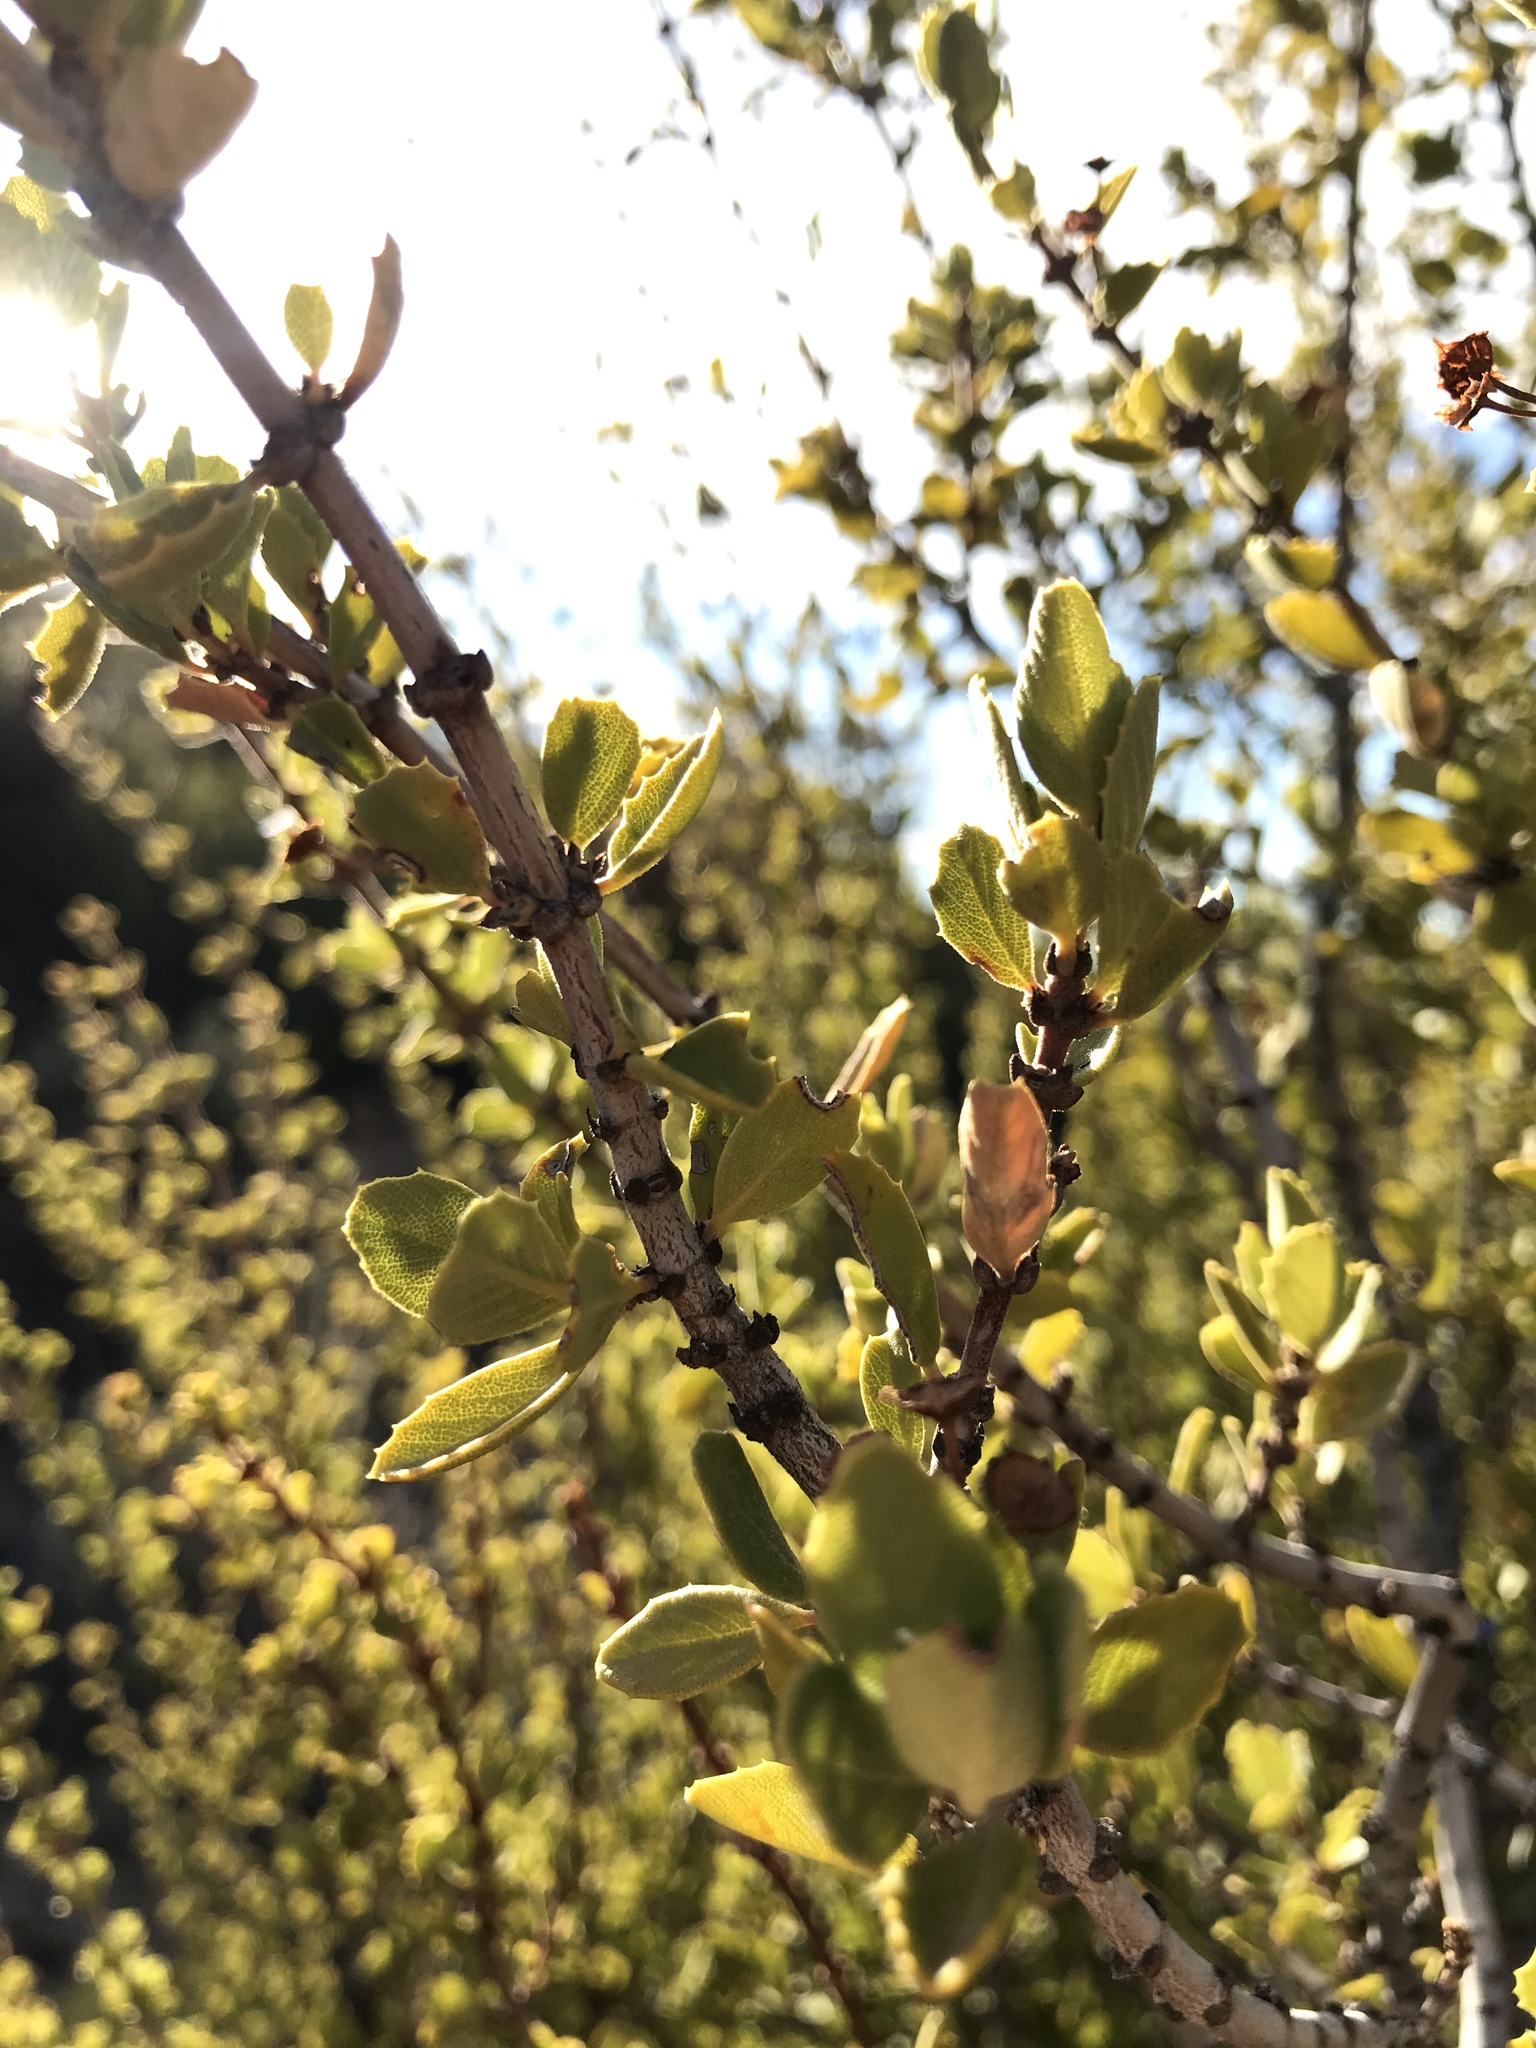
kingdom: Plantae
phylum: Tracheophyta
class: Magnoliopsida
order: Rosales
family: Rhamnaceae
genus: Ceanothus
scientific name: Ceanothus perplexans
